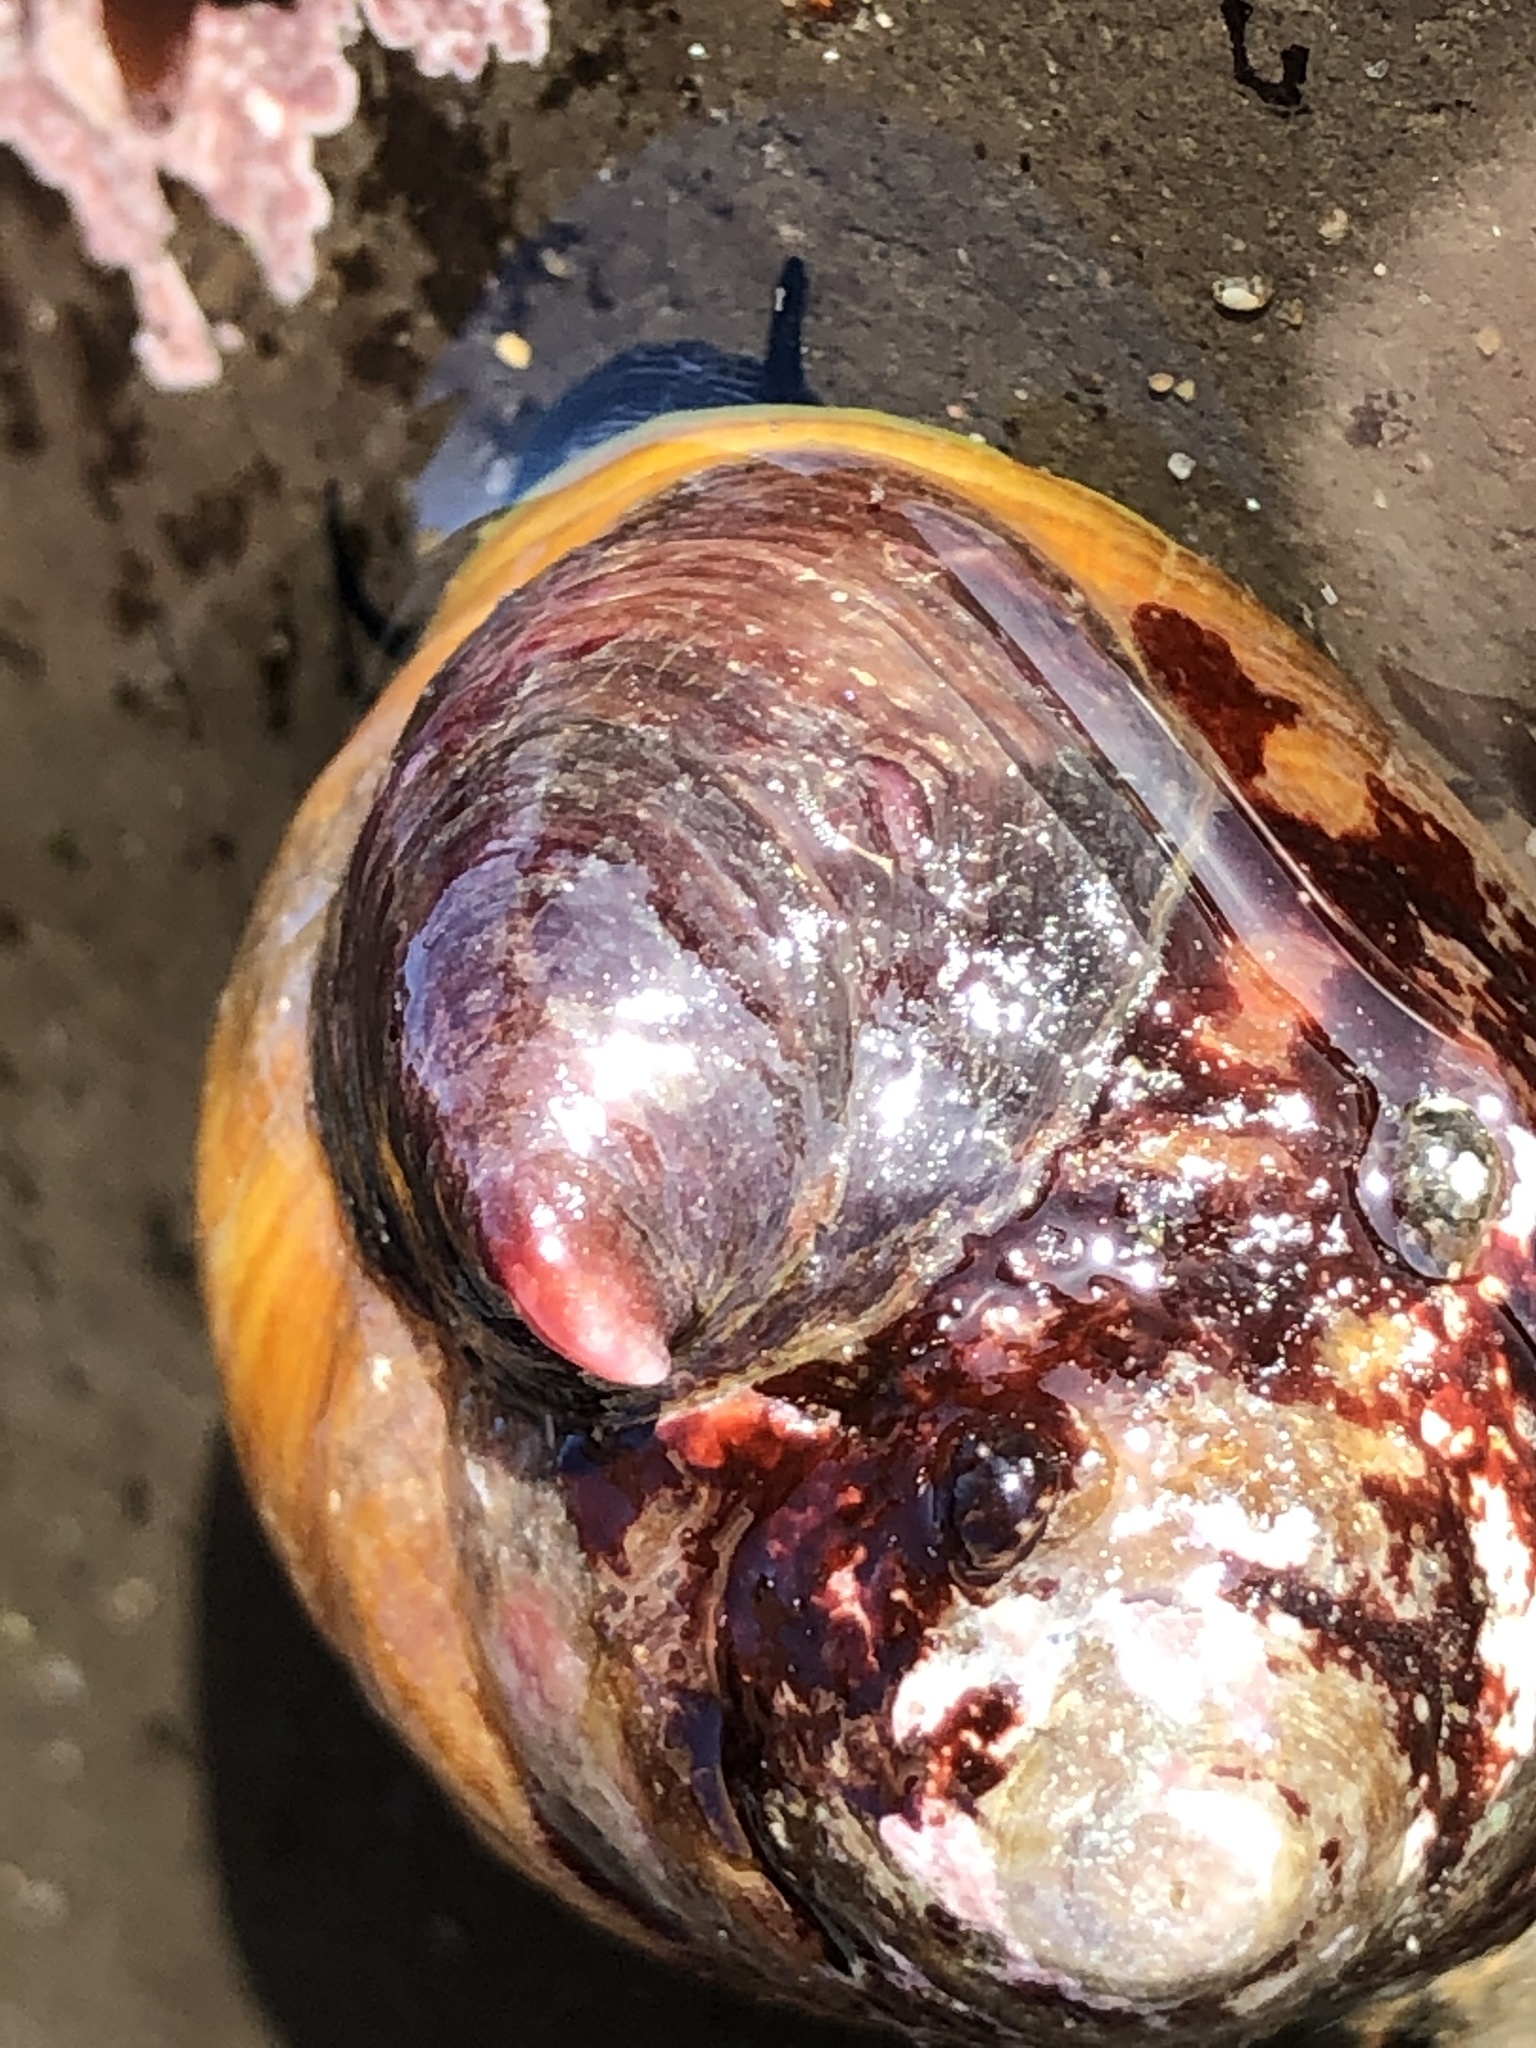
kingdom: Animalia
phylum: Mollusca
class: Gastropoda
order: Littorinimorpha
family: Calyptraeidae
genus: Crepidula
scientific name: Crepidula adunca
